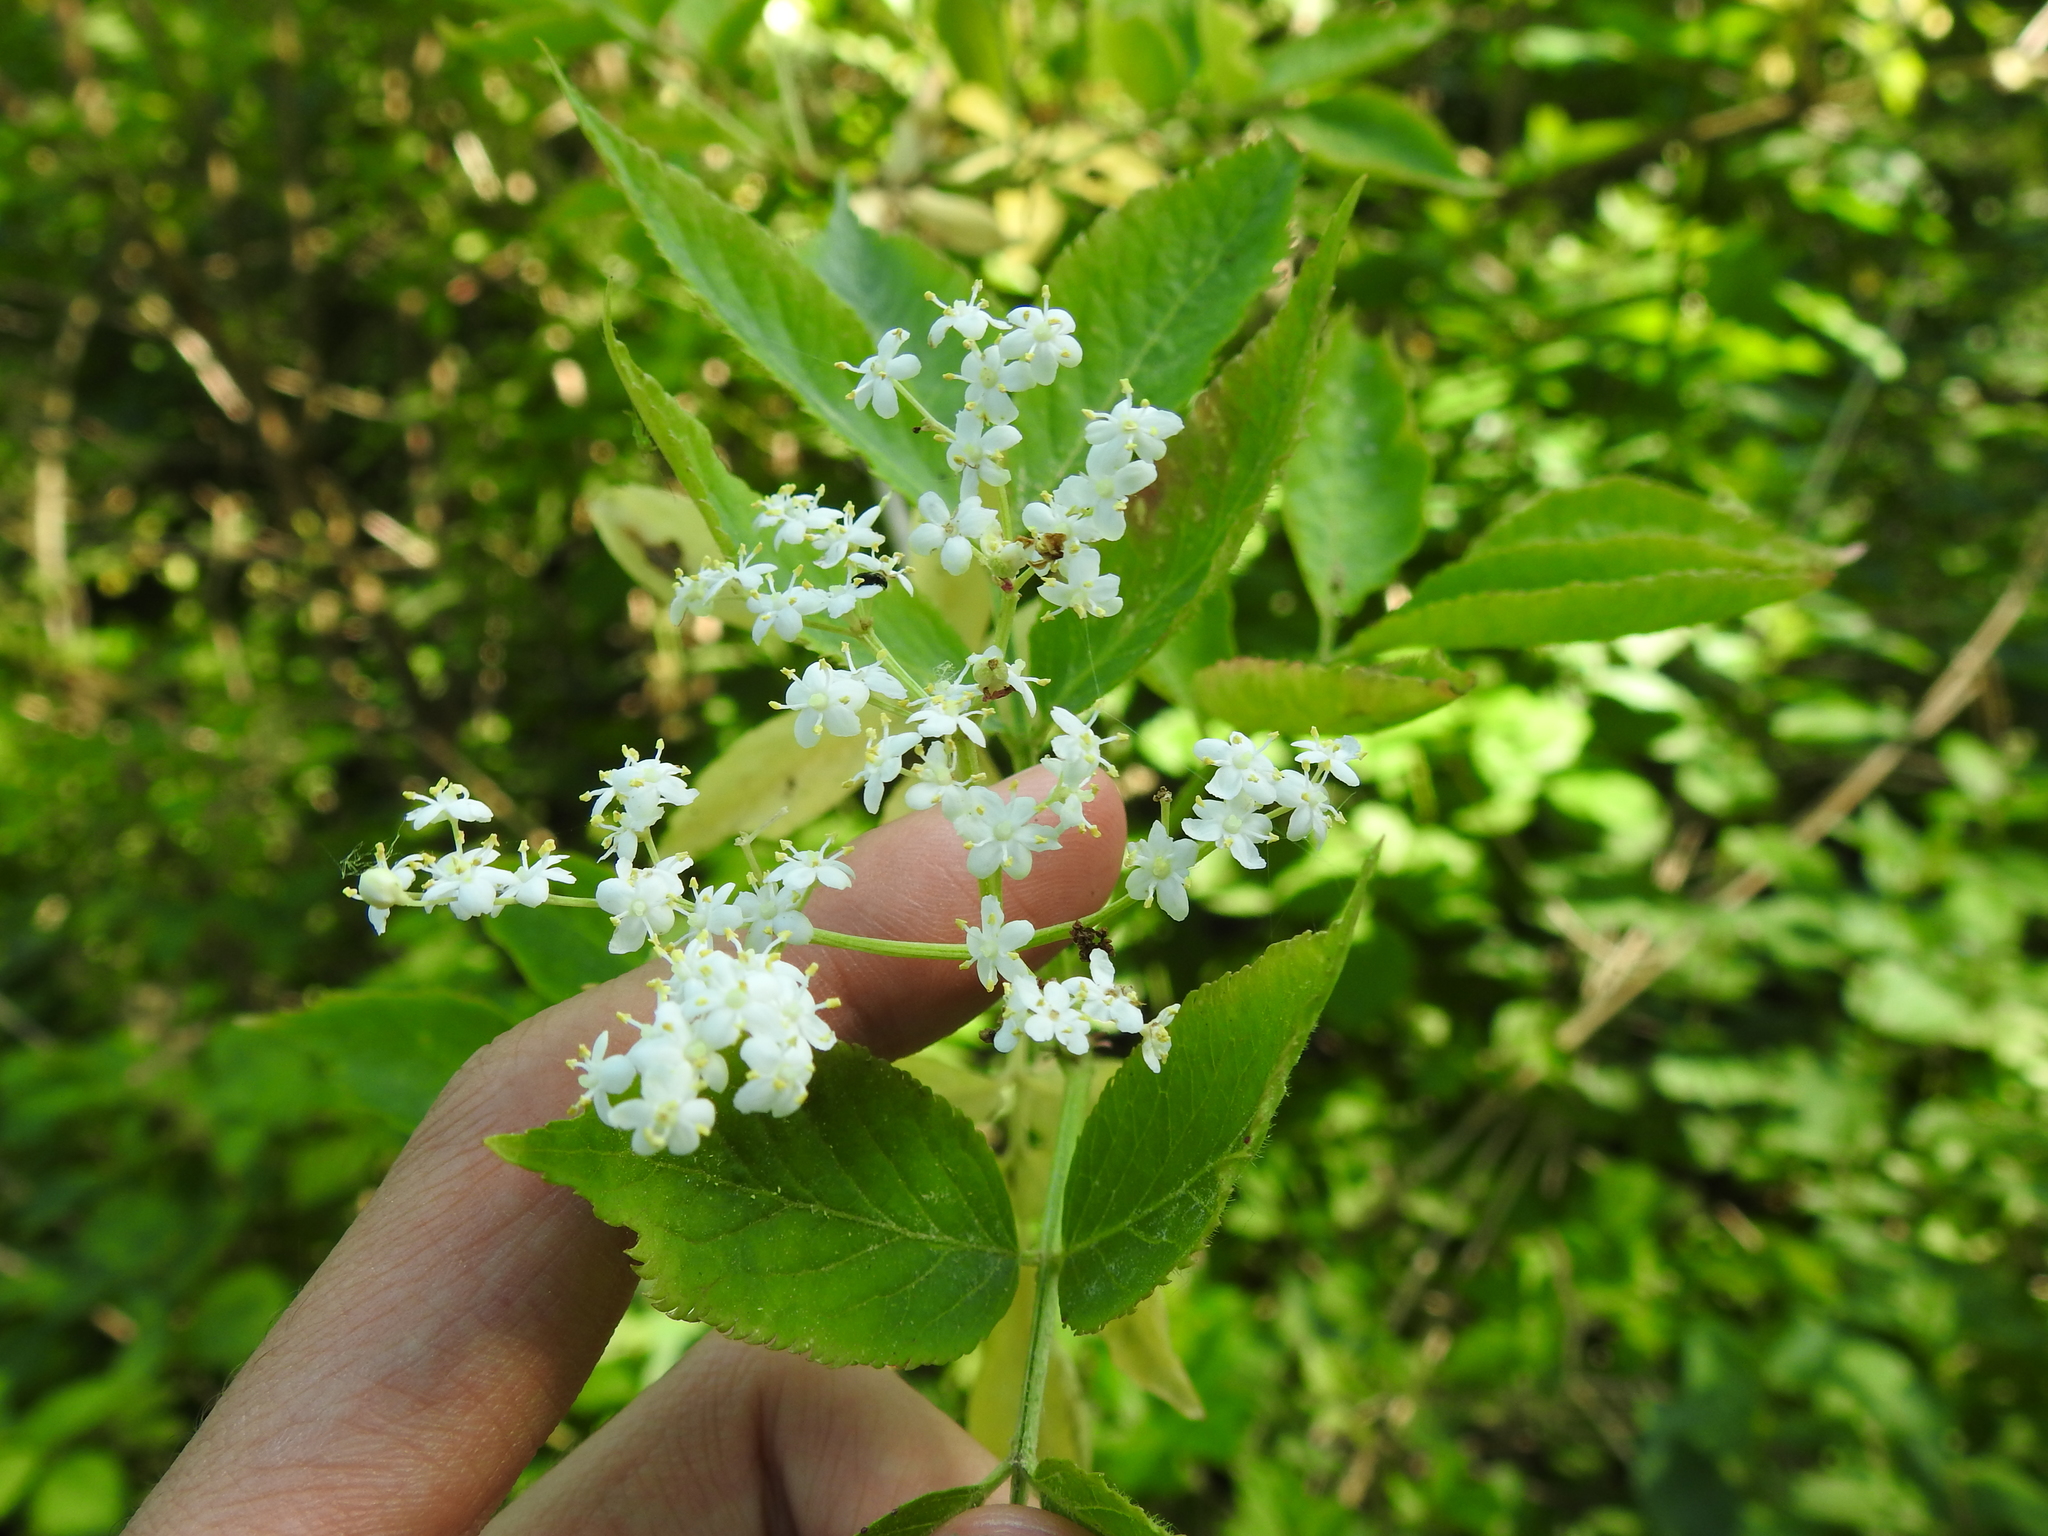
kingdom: Plantae
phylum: Tracheophyta
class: Magnoliopsida
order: Dipsacales
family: Viburnaceae
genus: Sambucus
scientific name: Sambucus nigra
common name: Elder
